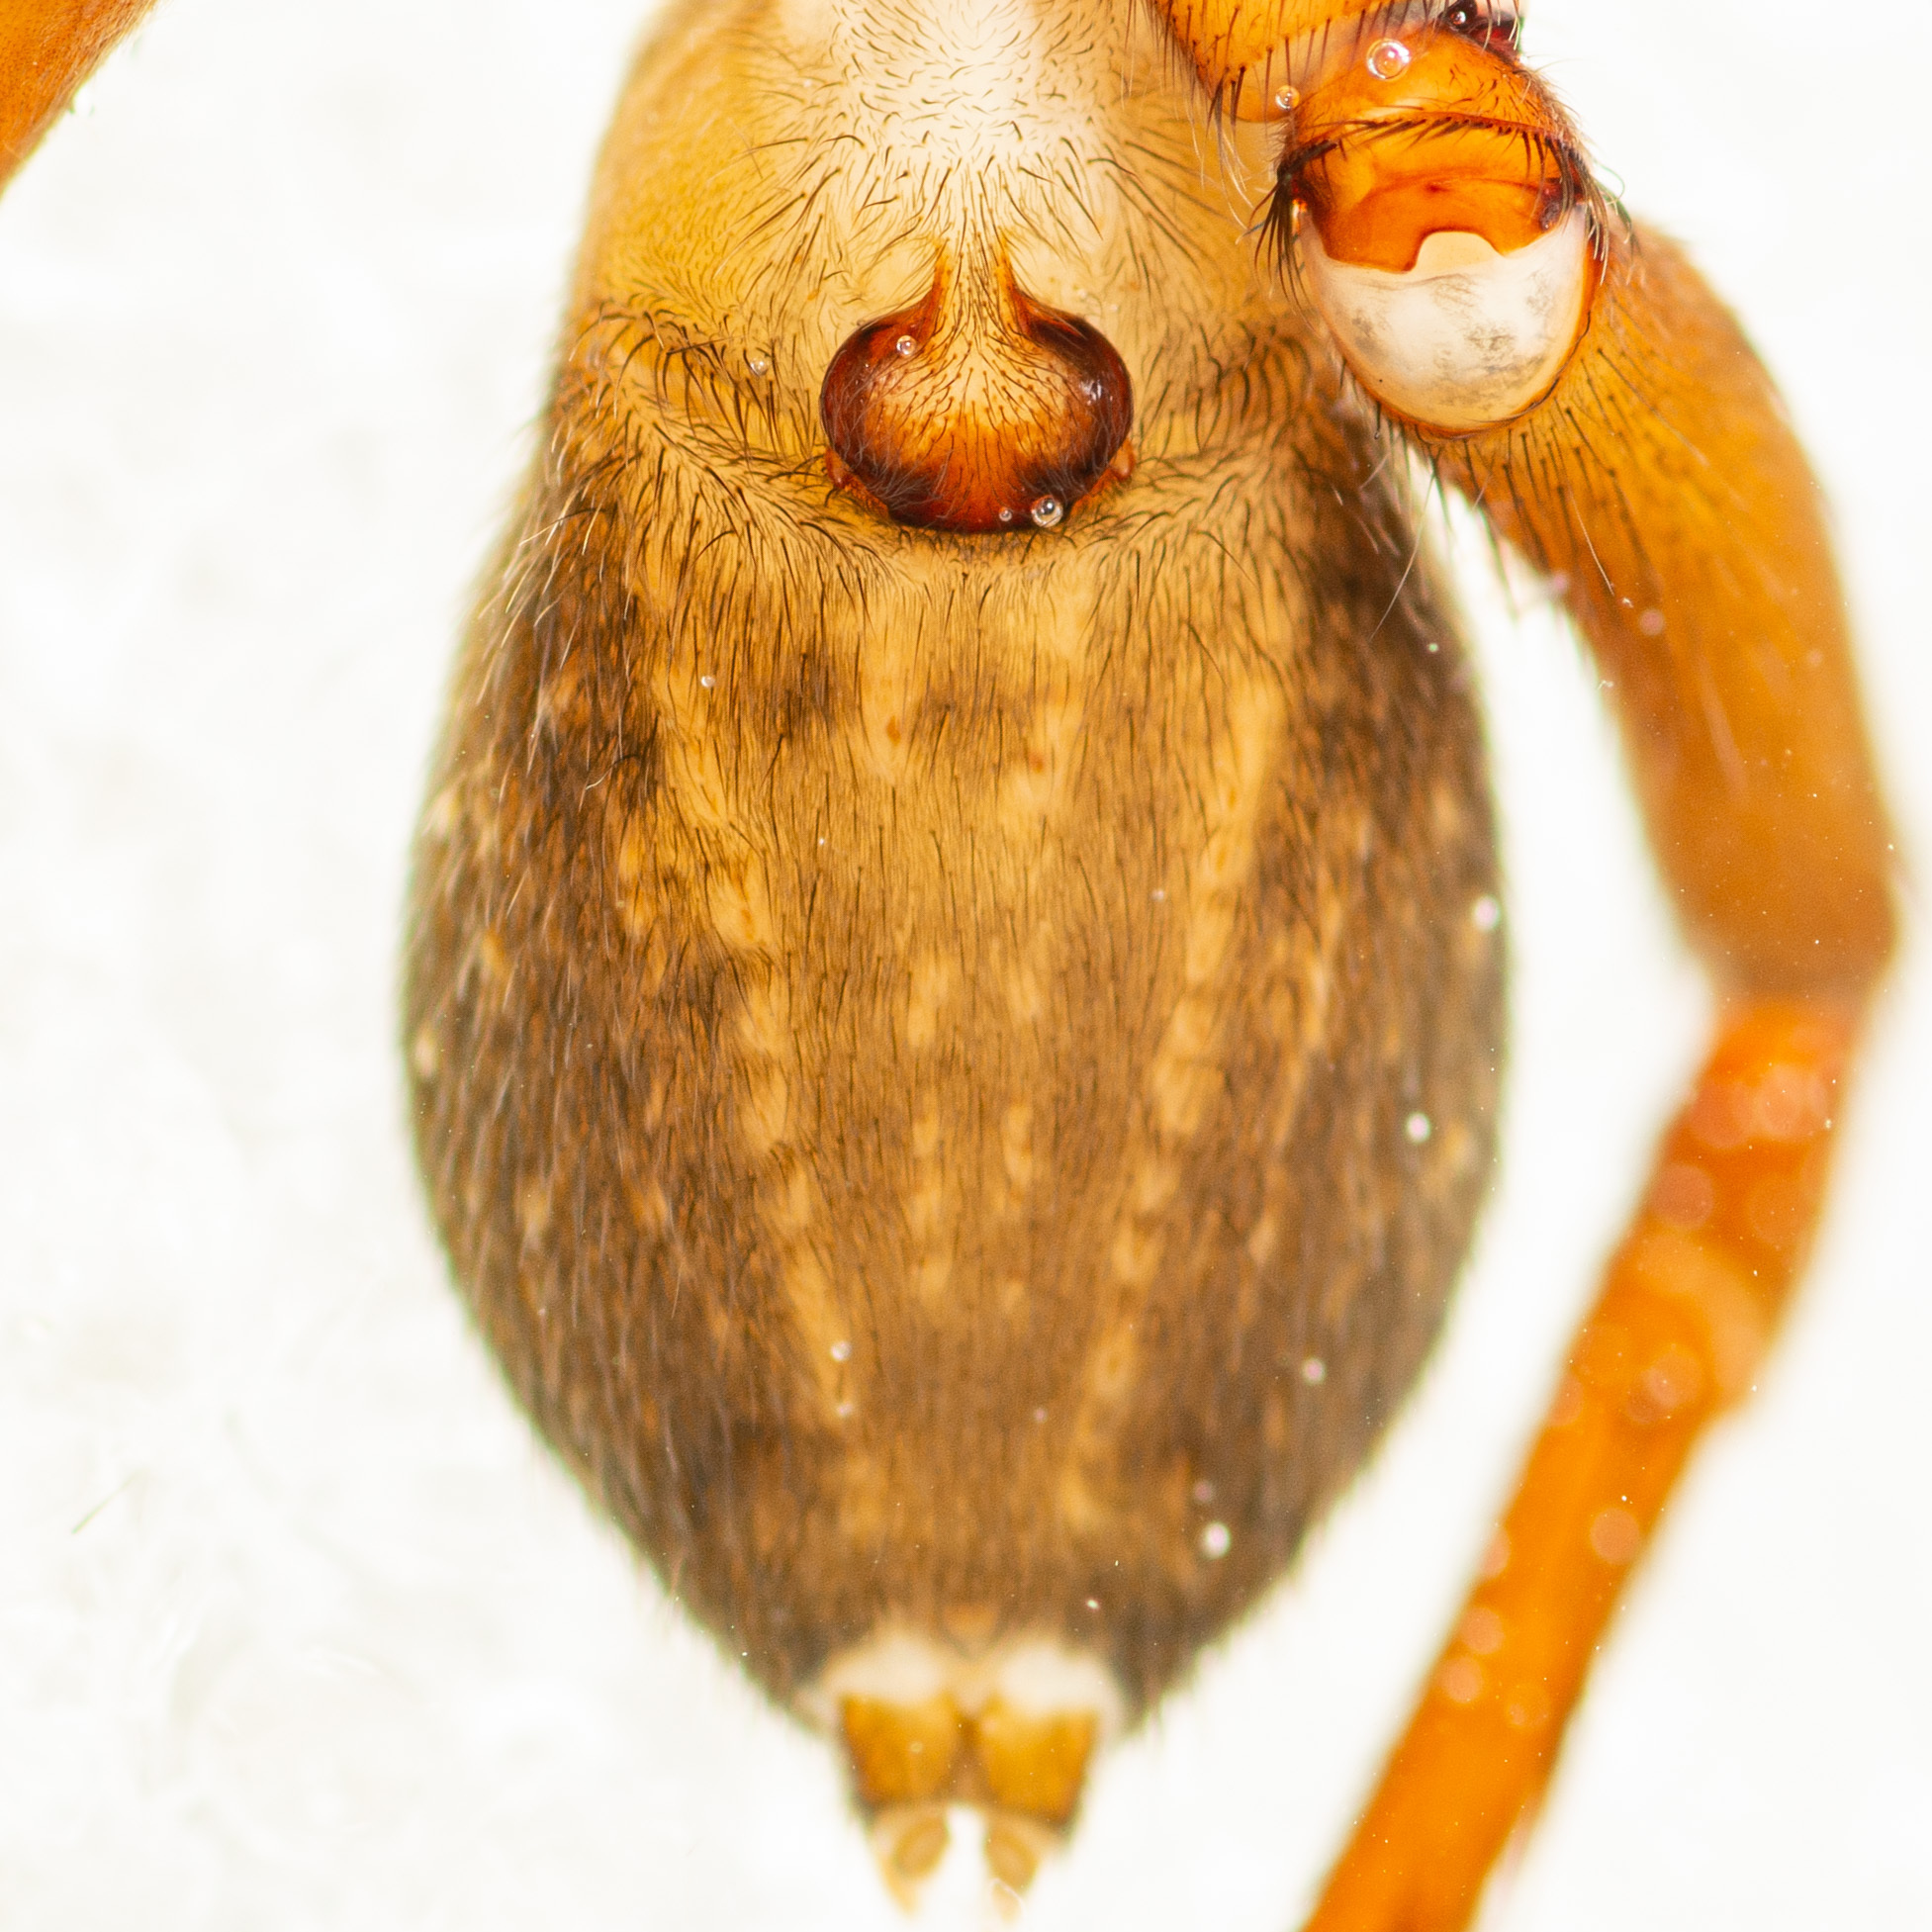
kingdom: Animalia
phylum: Arthropoda
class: Arachnida
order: Araneae
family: Ctenidae
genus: Ctenus
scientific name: Ctenus captiosus
